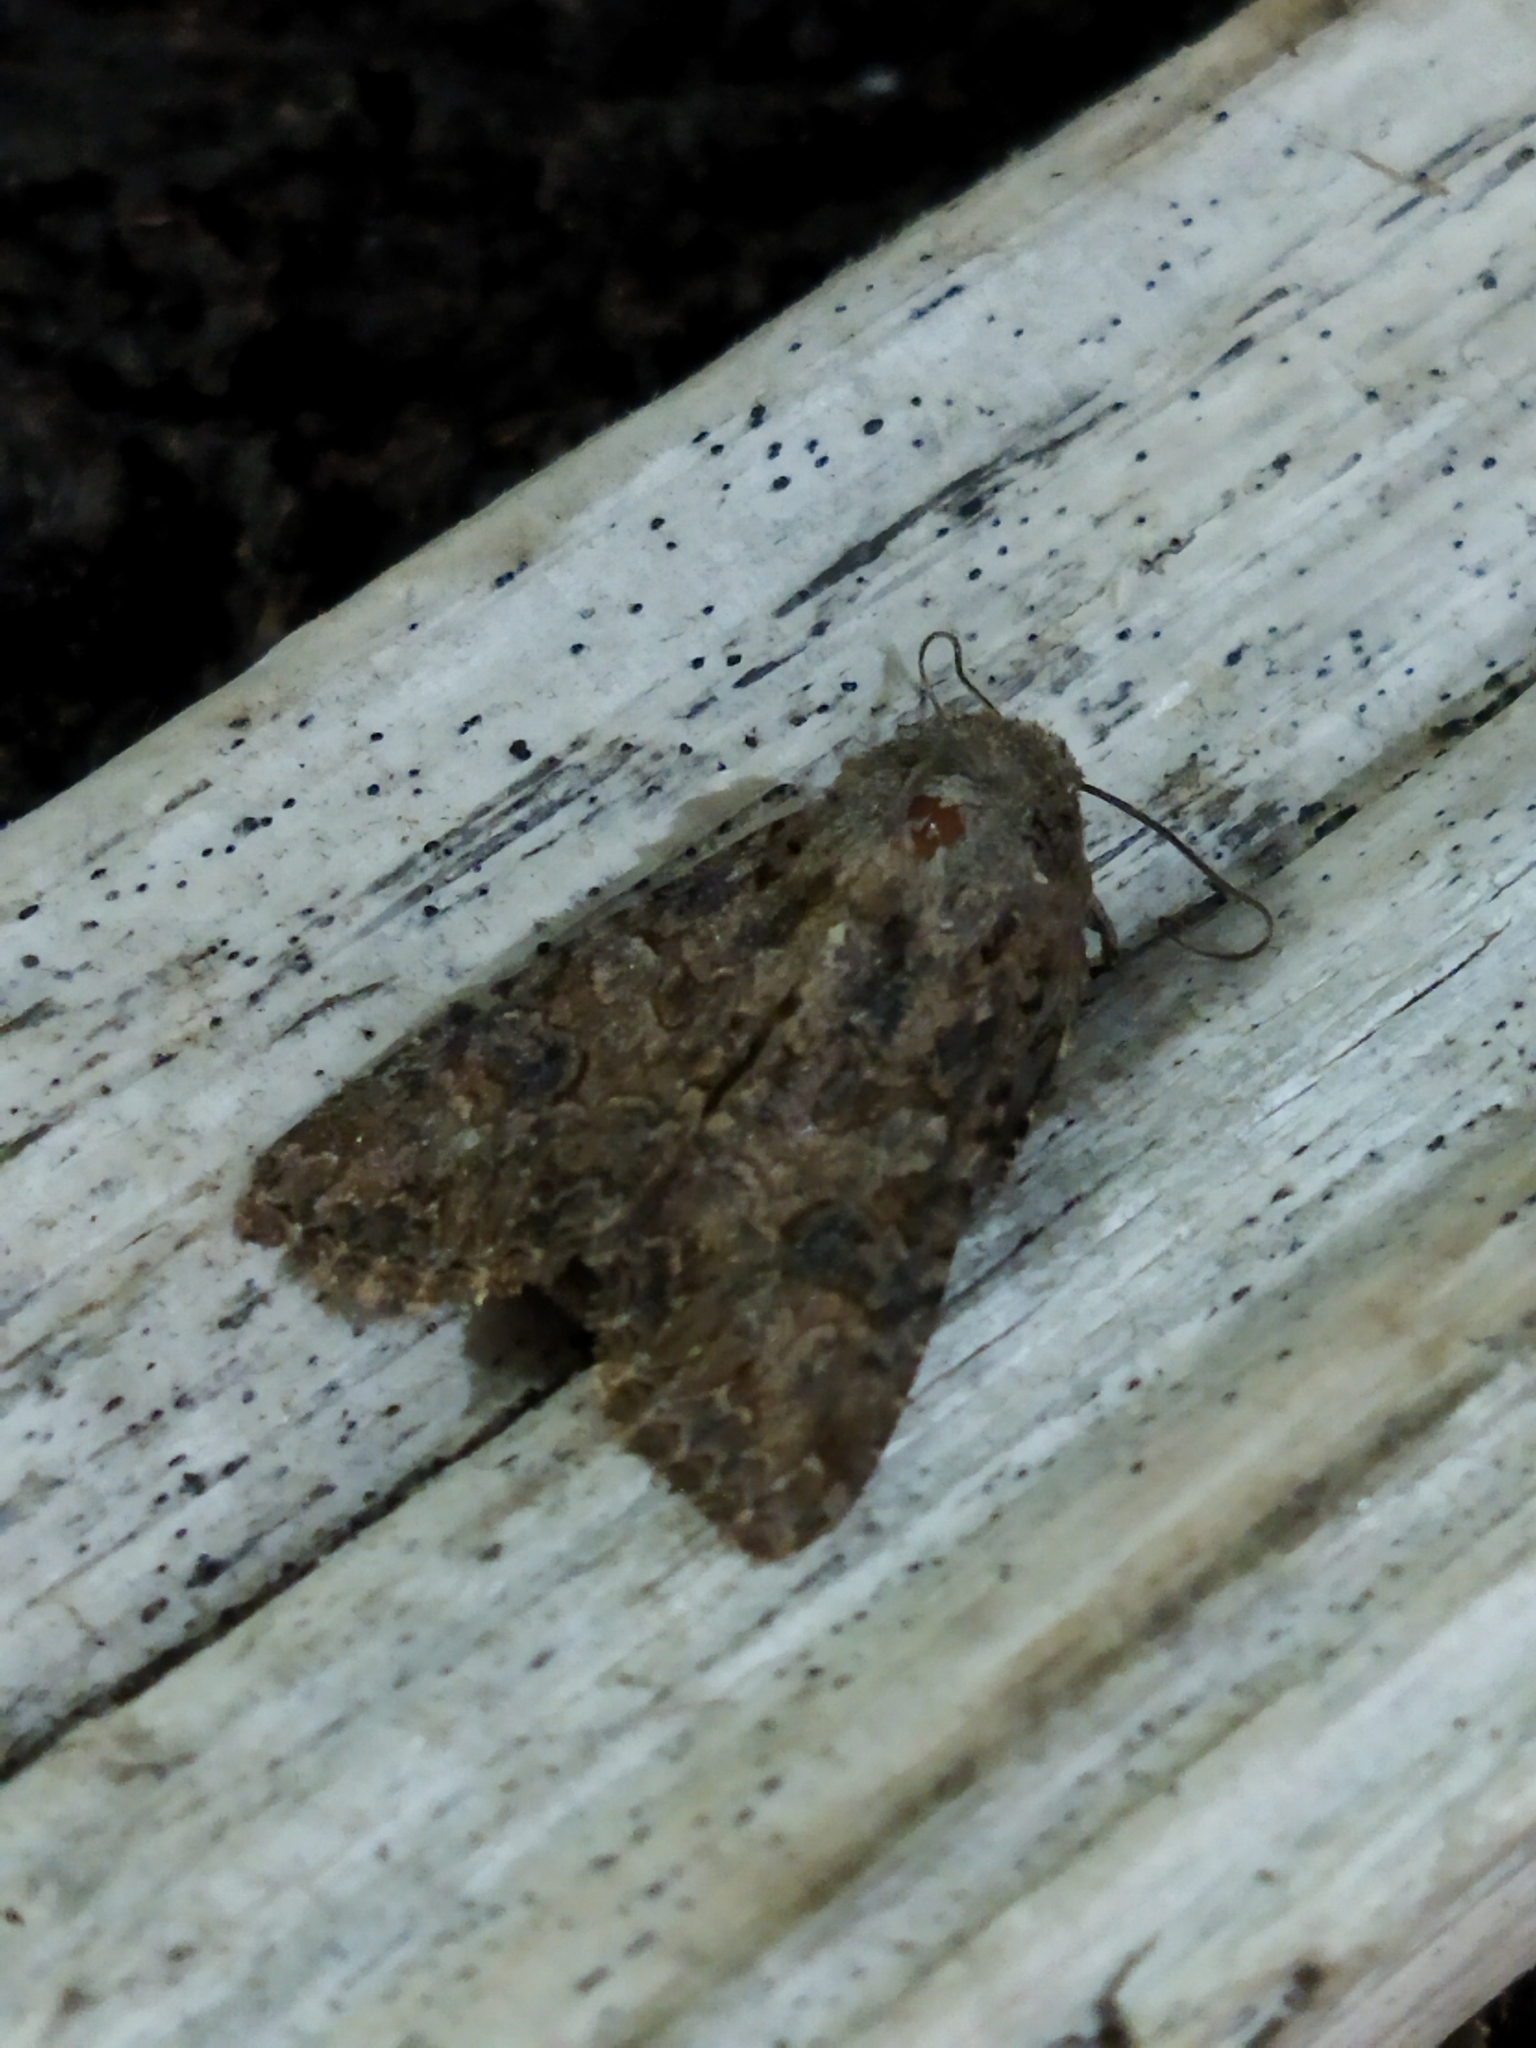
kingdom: Animalia
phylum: Arthropoda
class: Insecta
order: Lepidoptera
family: Noctuidae
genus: Anarta
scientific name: Anarta trifolii
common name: Clover cutworm moth
